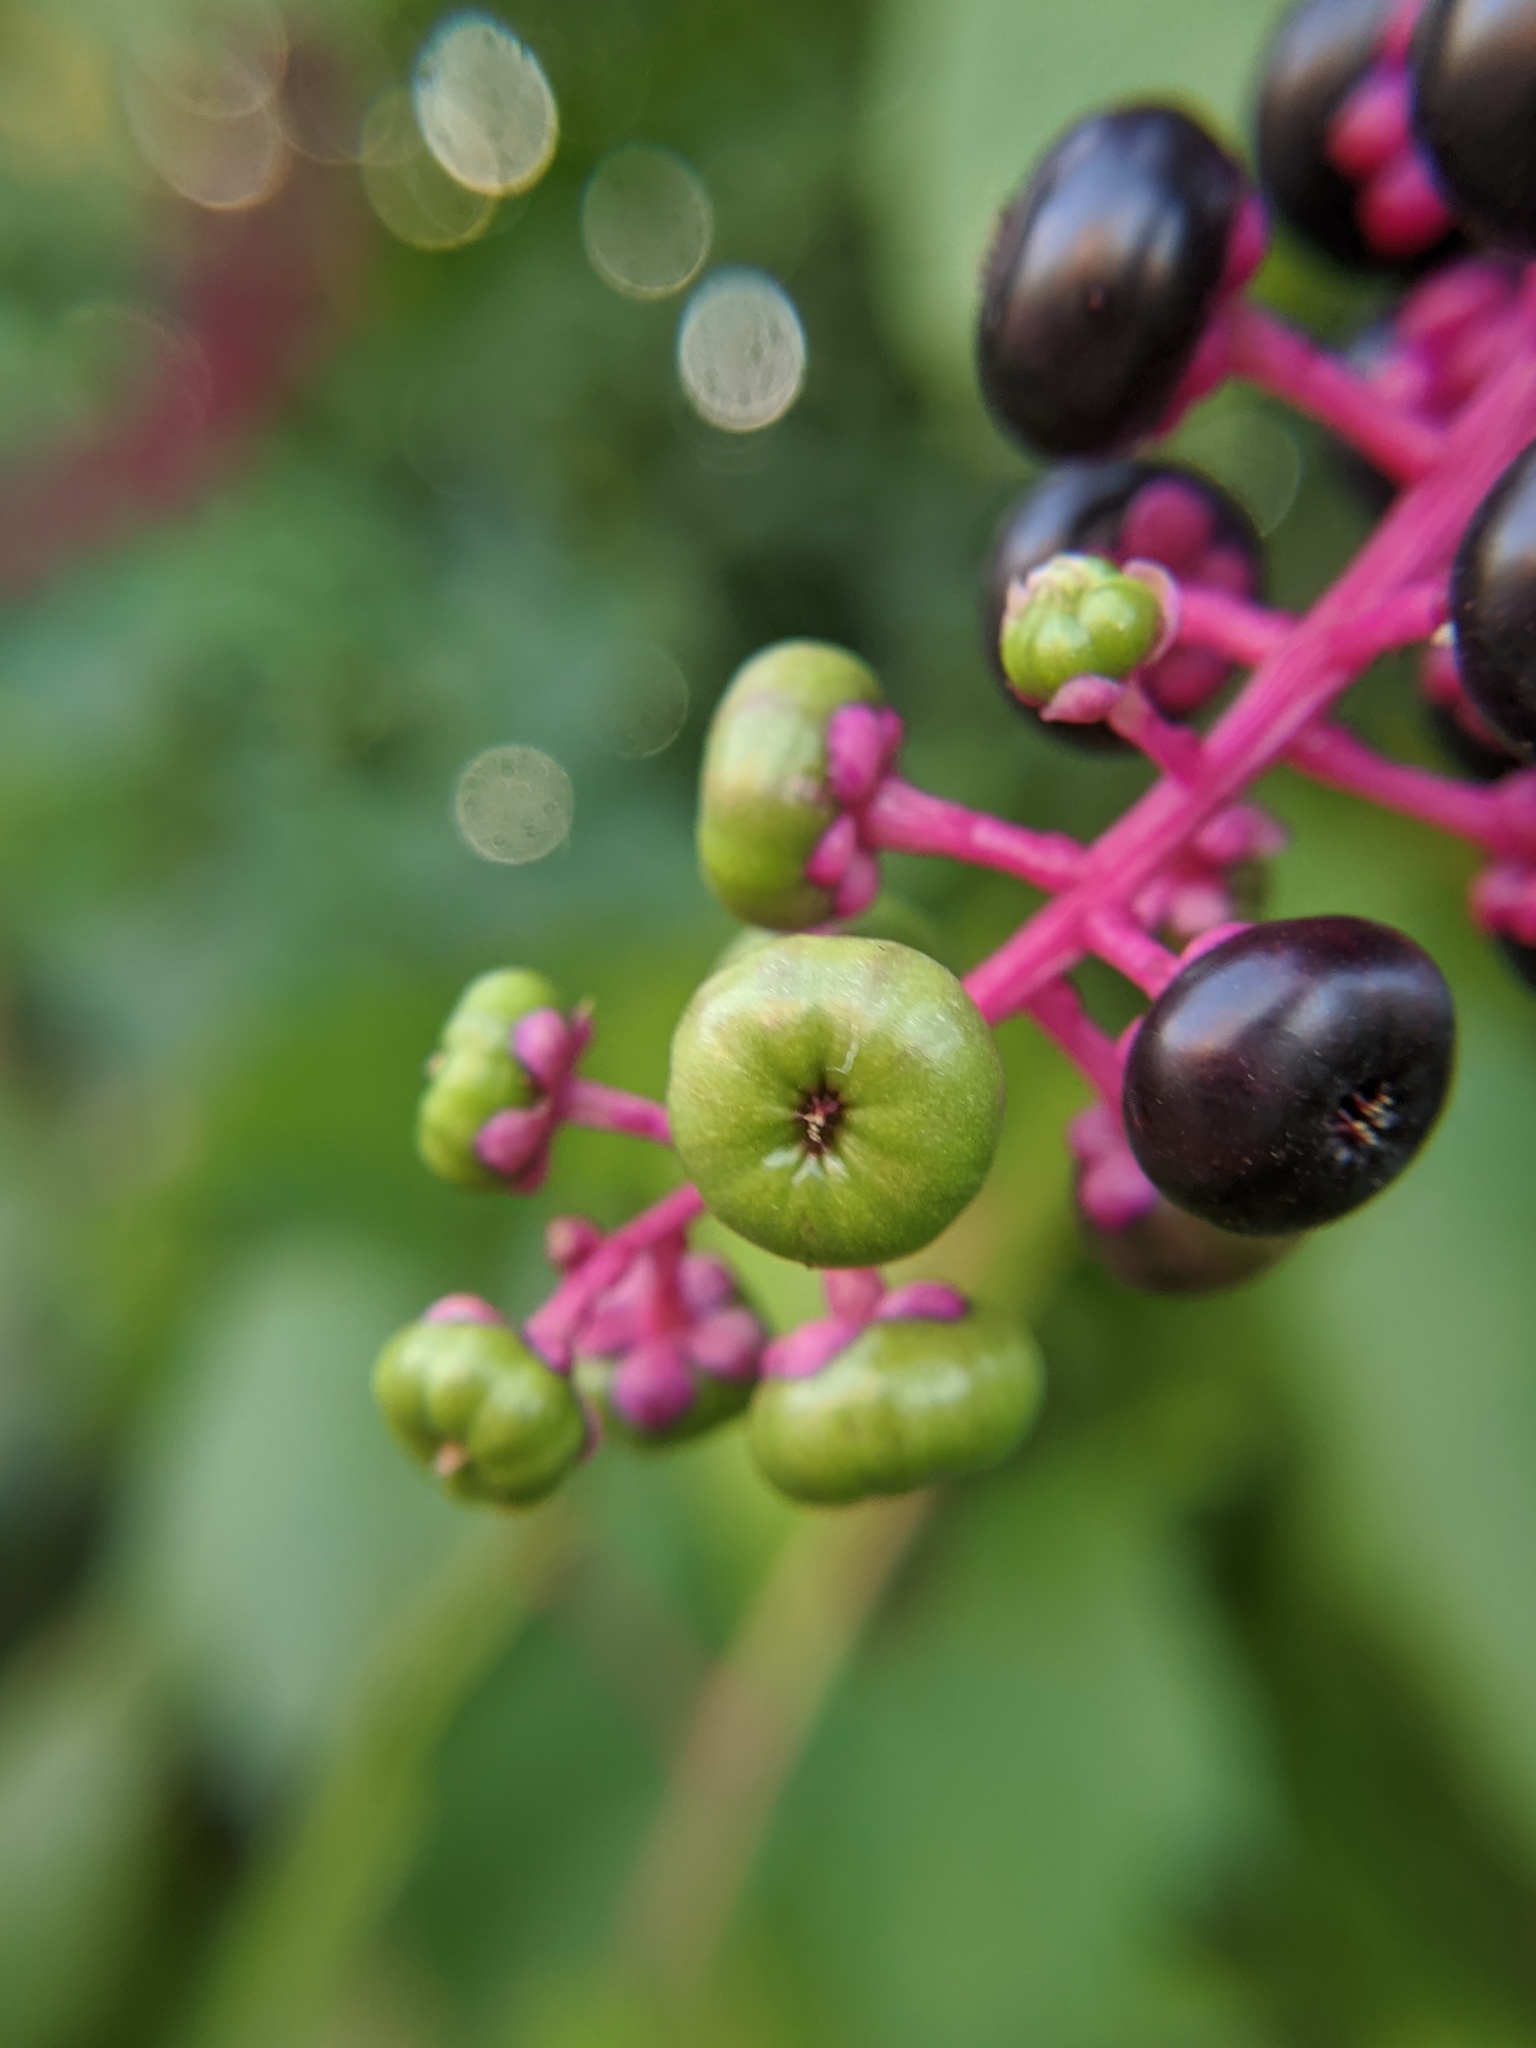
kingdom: Plantae
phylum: Tracheophyta
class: Magnoliopsida
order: Caryophyllales
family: Phytolaccaceae
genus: Phytolacca
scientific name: Phytolacca americana
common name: American pokeweed
